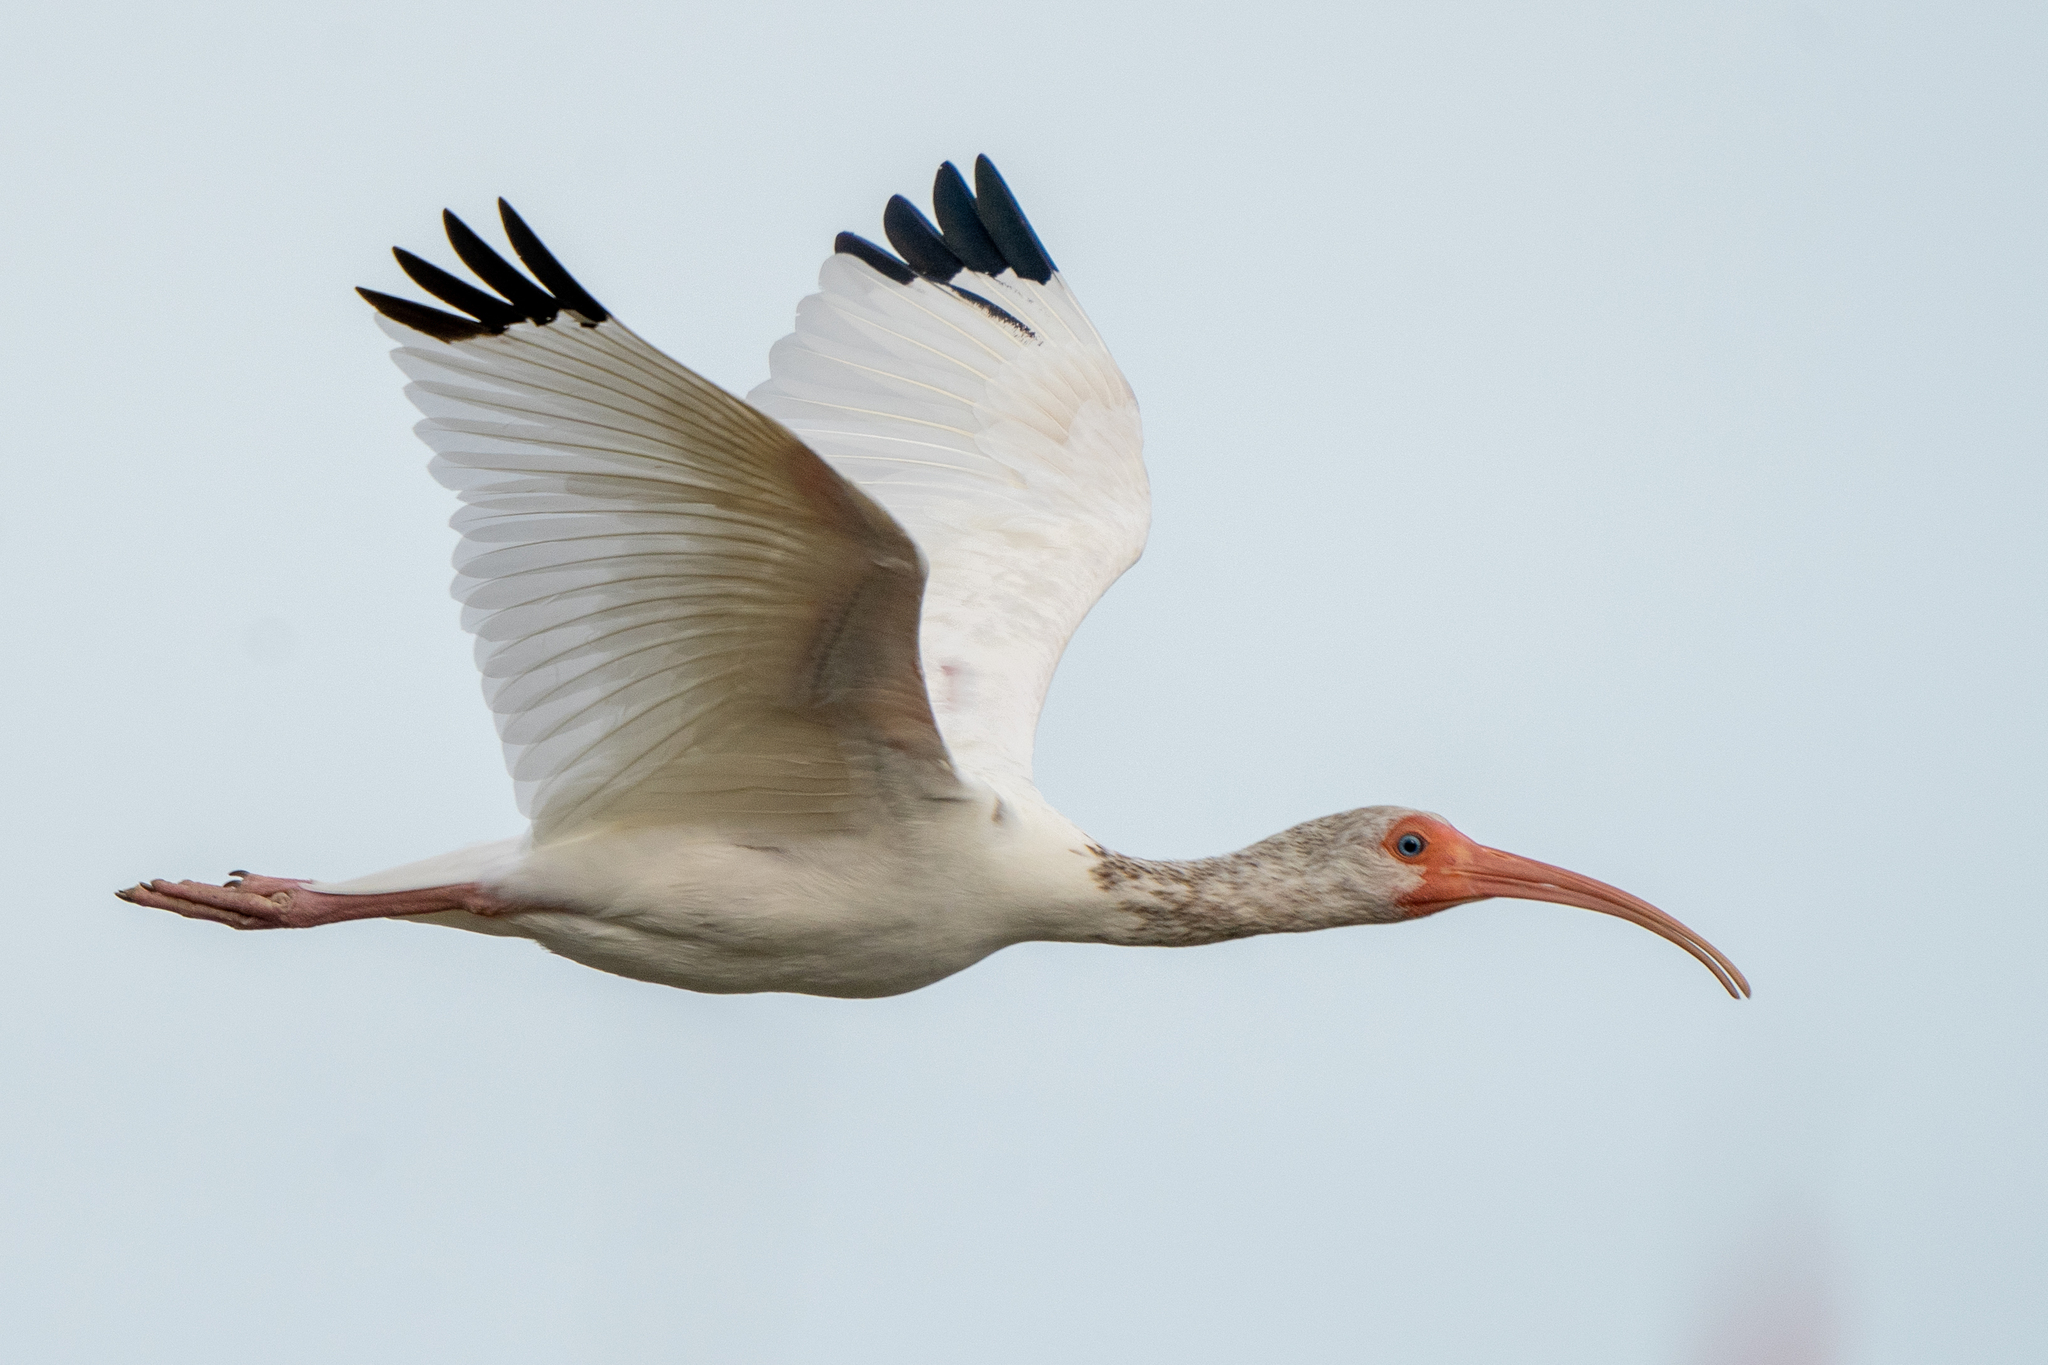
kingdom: Animalia
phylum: Chordata
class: Aves
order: Pelecaniformes
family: Threskiornithidae
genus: Eudocimus
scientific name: Eudocimus albus
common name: White ibis
